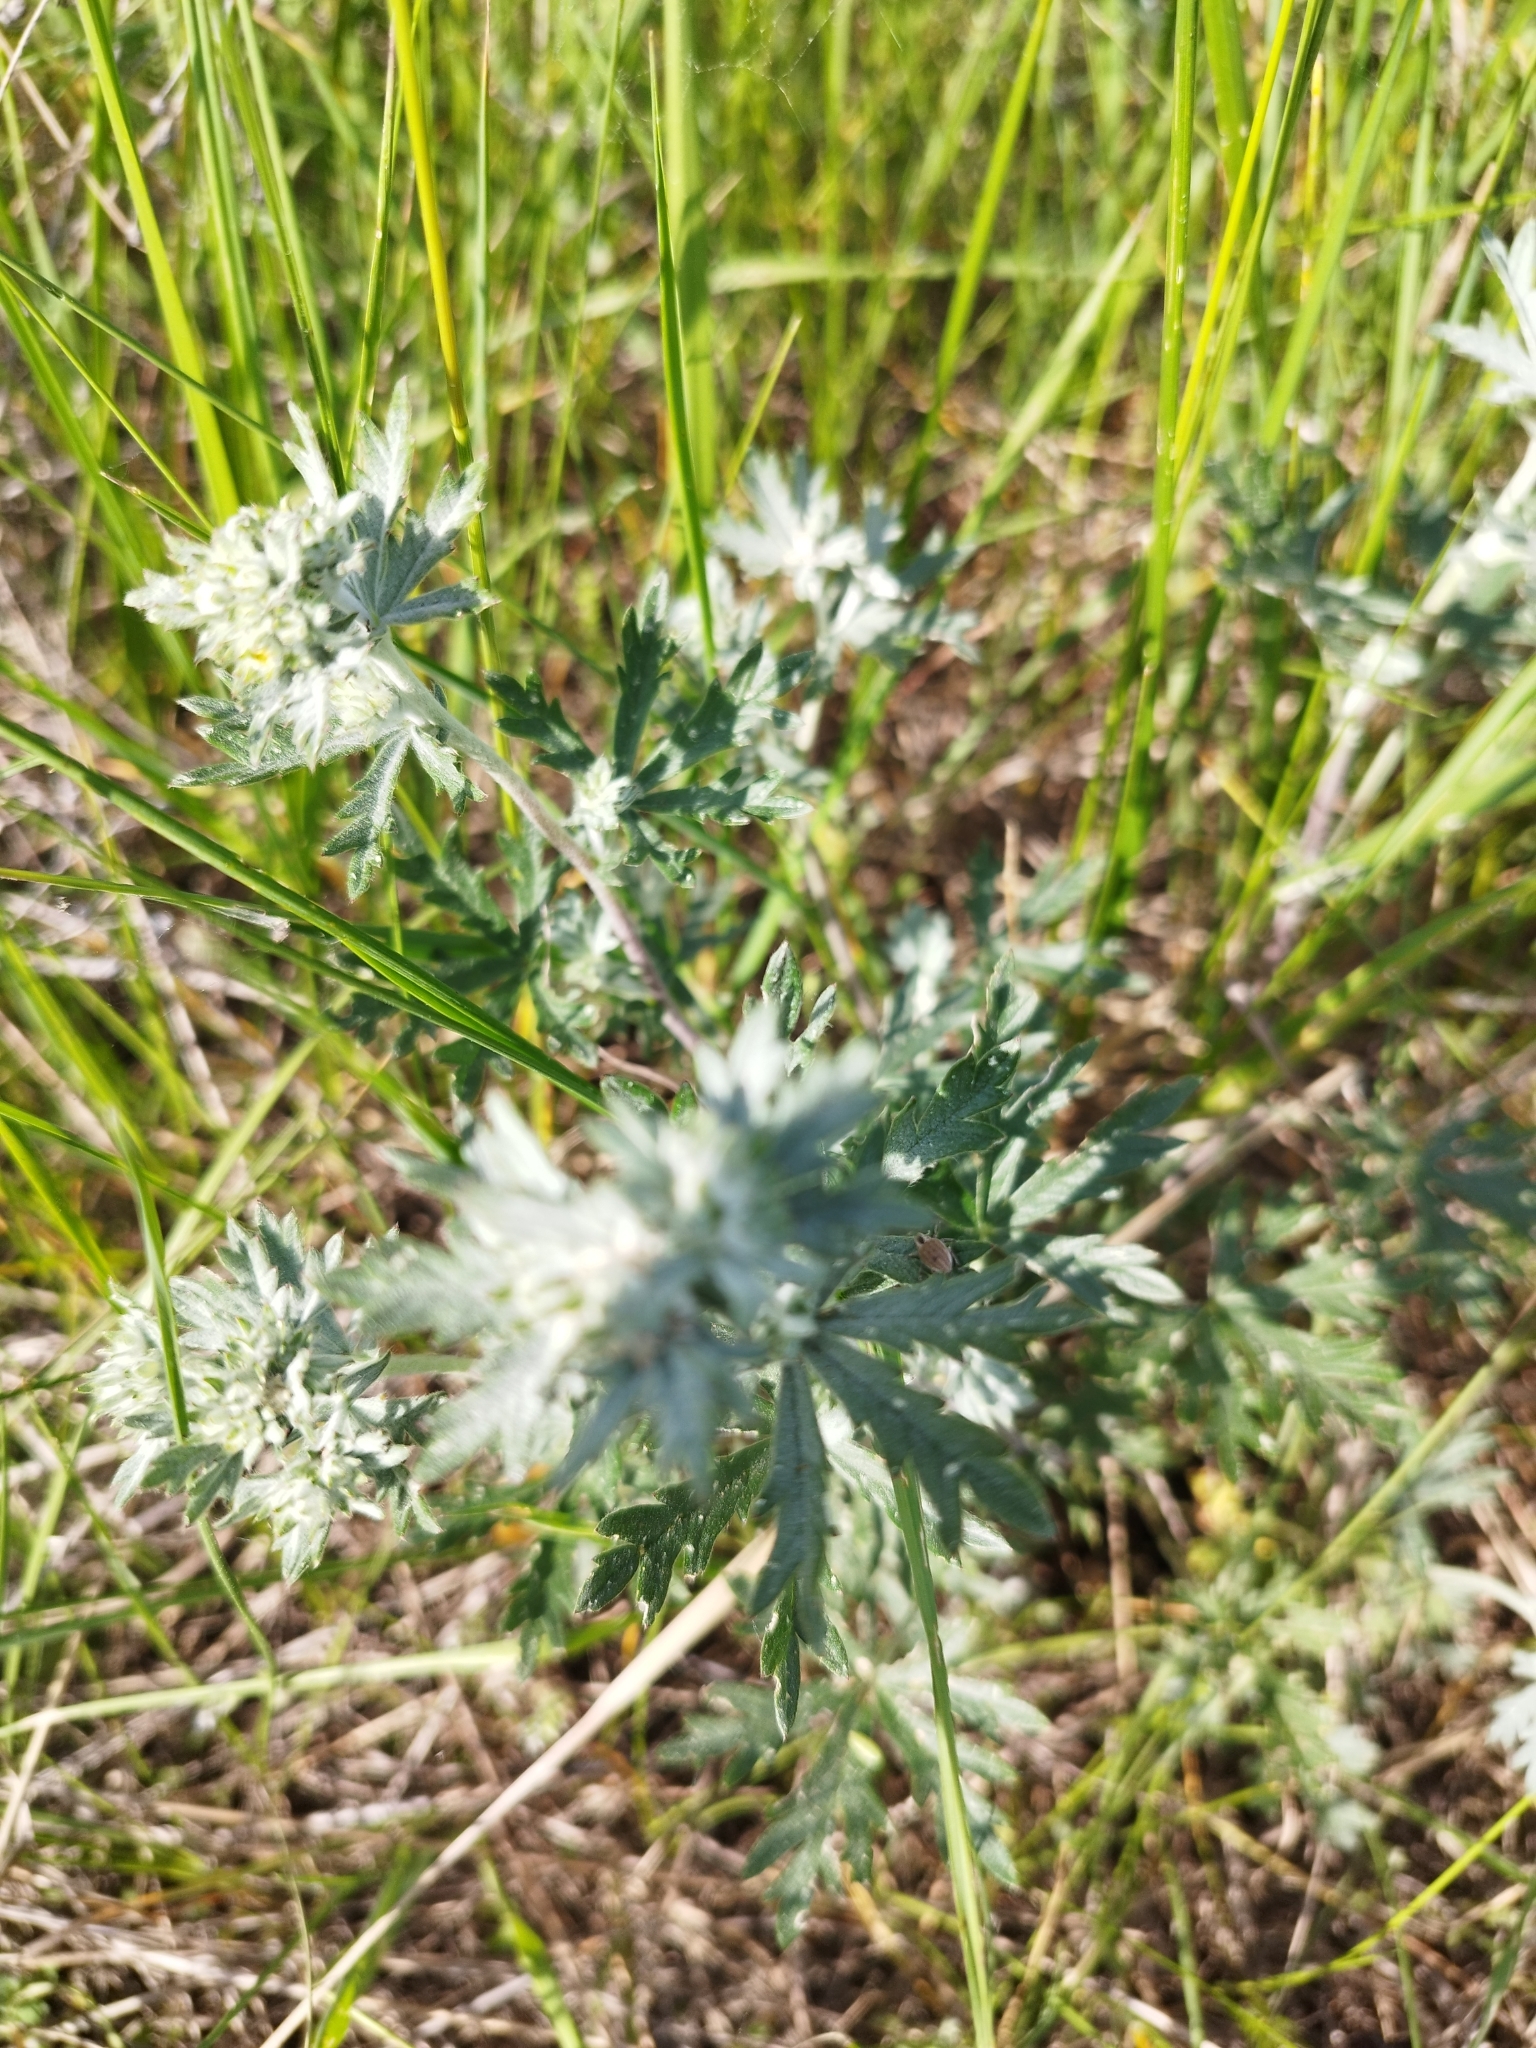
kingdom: Plantae
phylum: Tracheophyta
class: Magnoliopsida
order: Rosales
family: Rosaceae
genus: Potentilla
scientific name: Potentilla argentea
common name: Hoary cinquefoil
